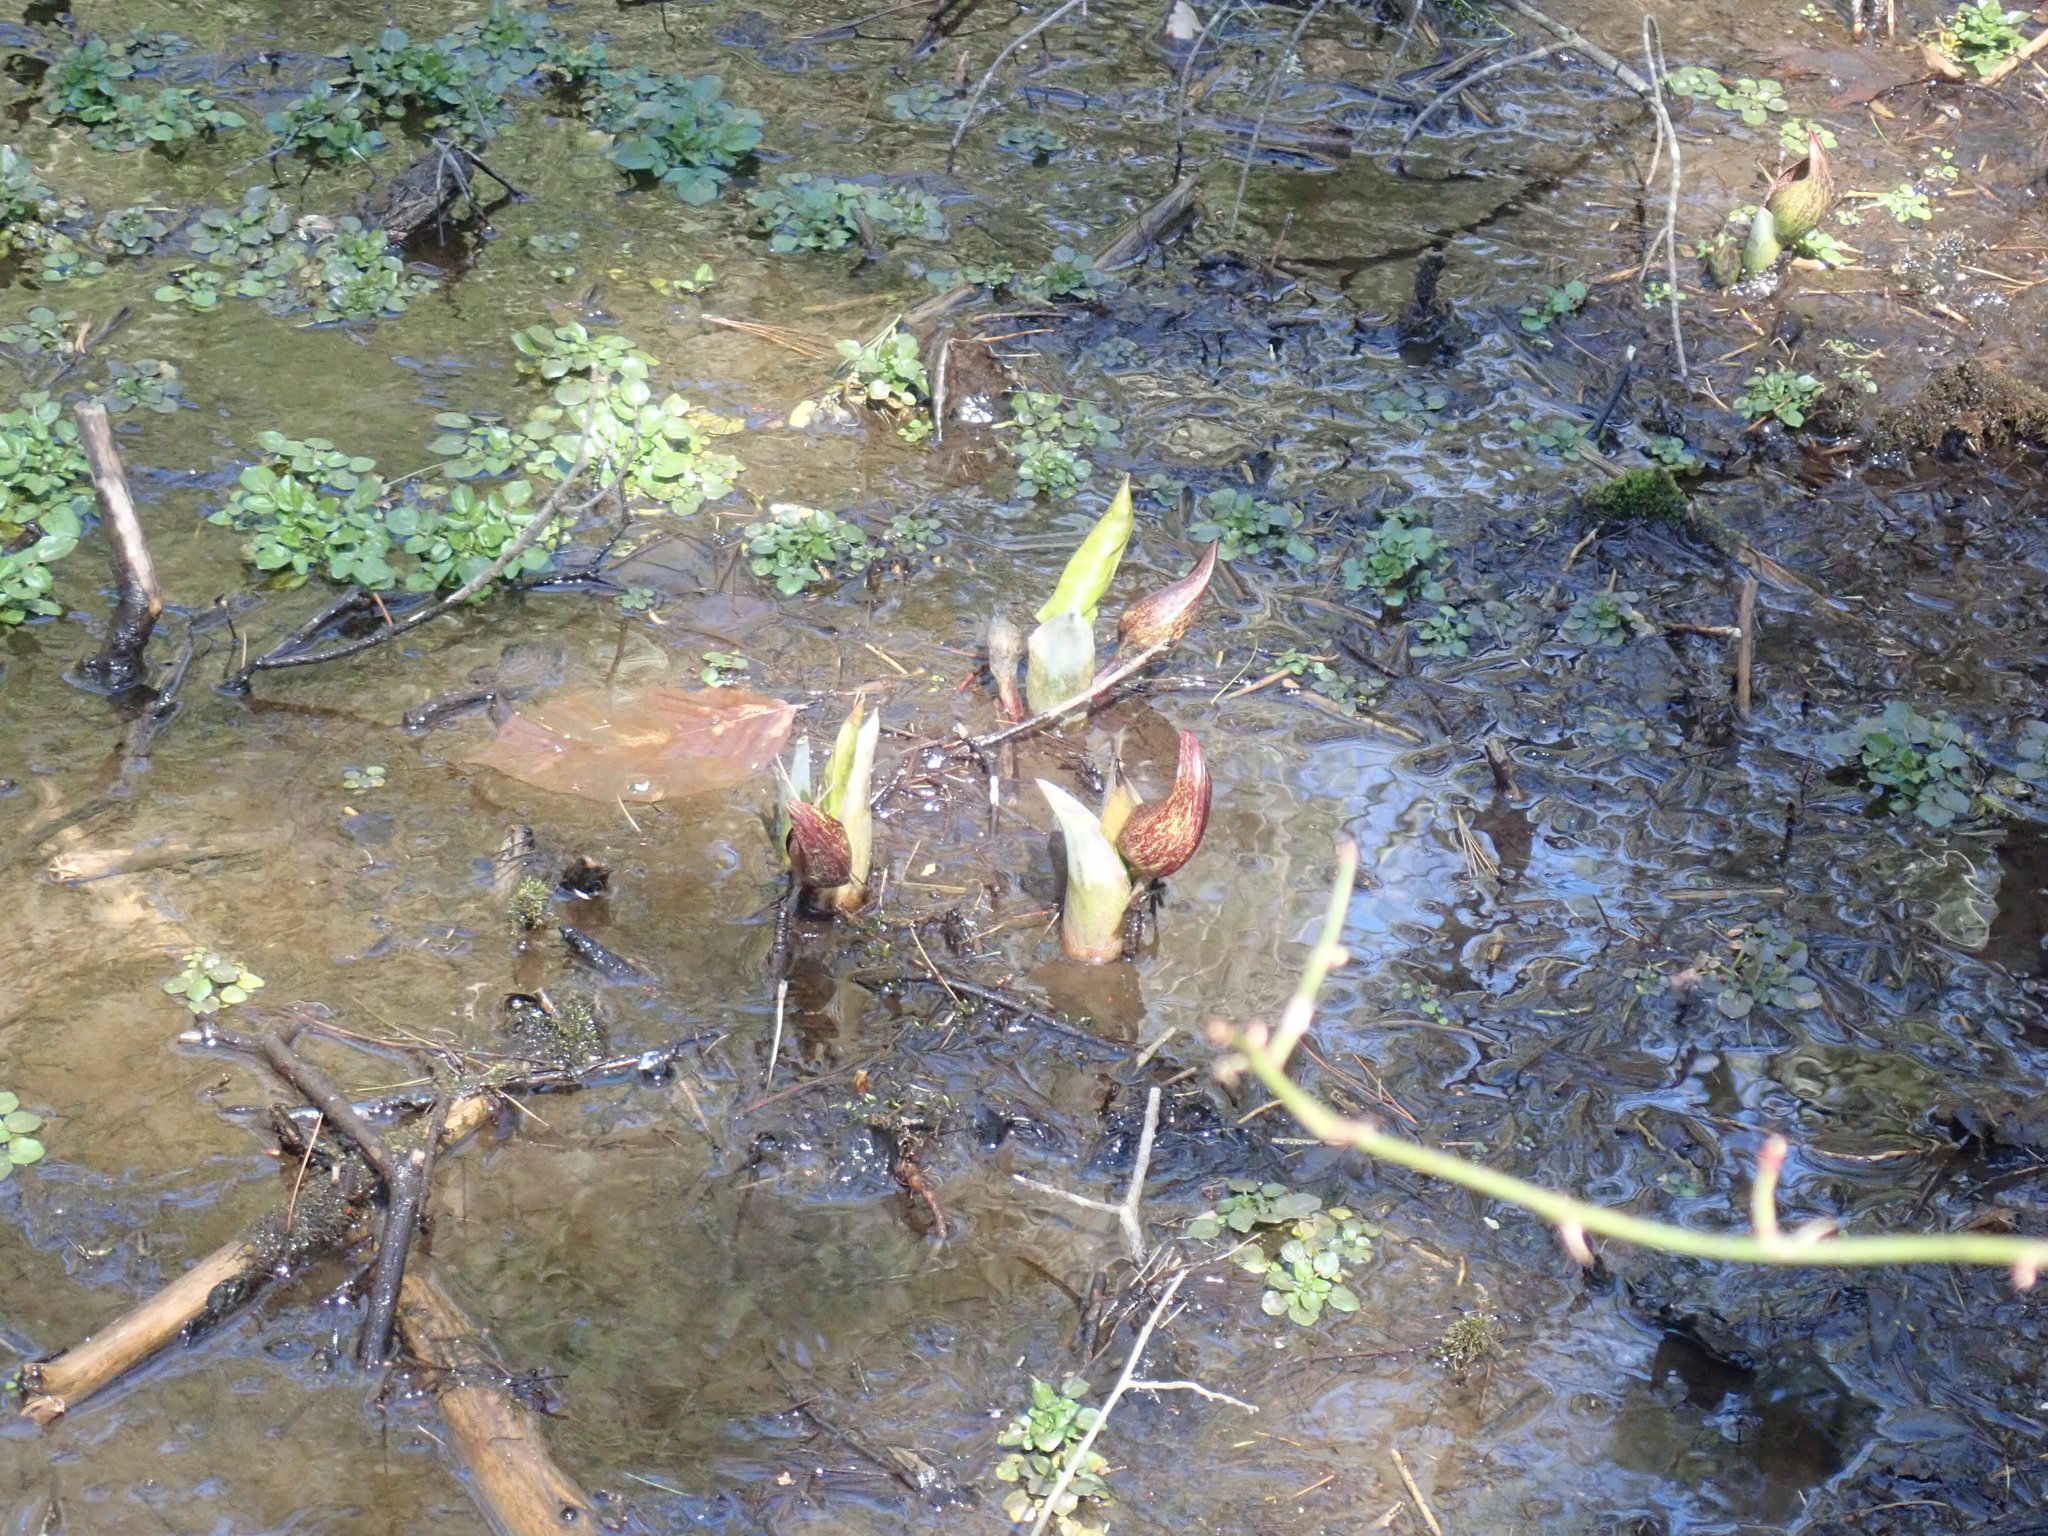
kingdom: Plantae
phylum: Tracheophyta
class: Liliopsida
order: Alismatales
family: Araceae
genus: Symplocarpus
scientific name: Symplocarpus foetidus
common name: Eastern skunk cabbage
